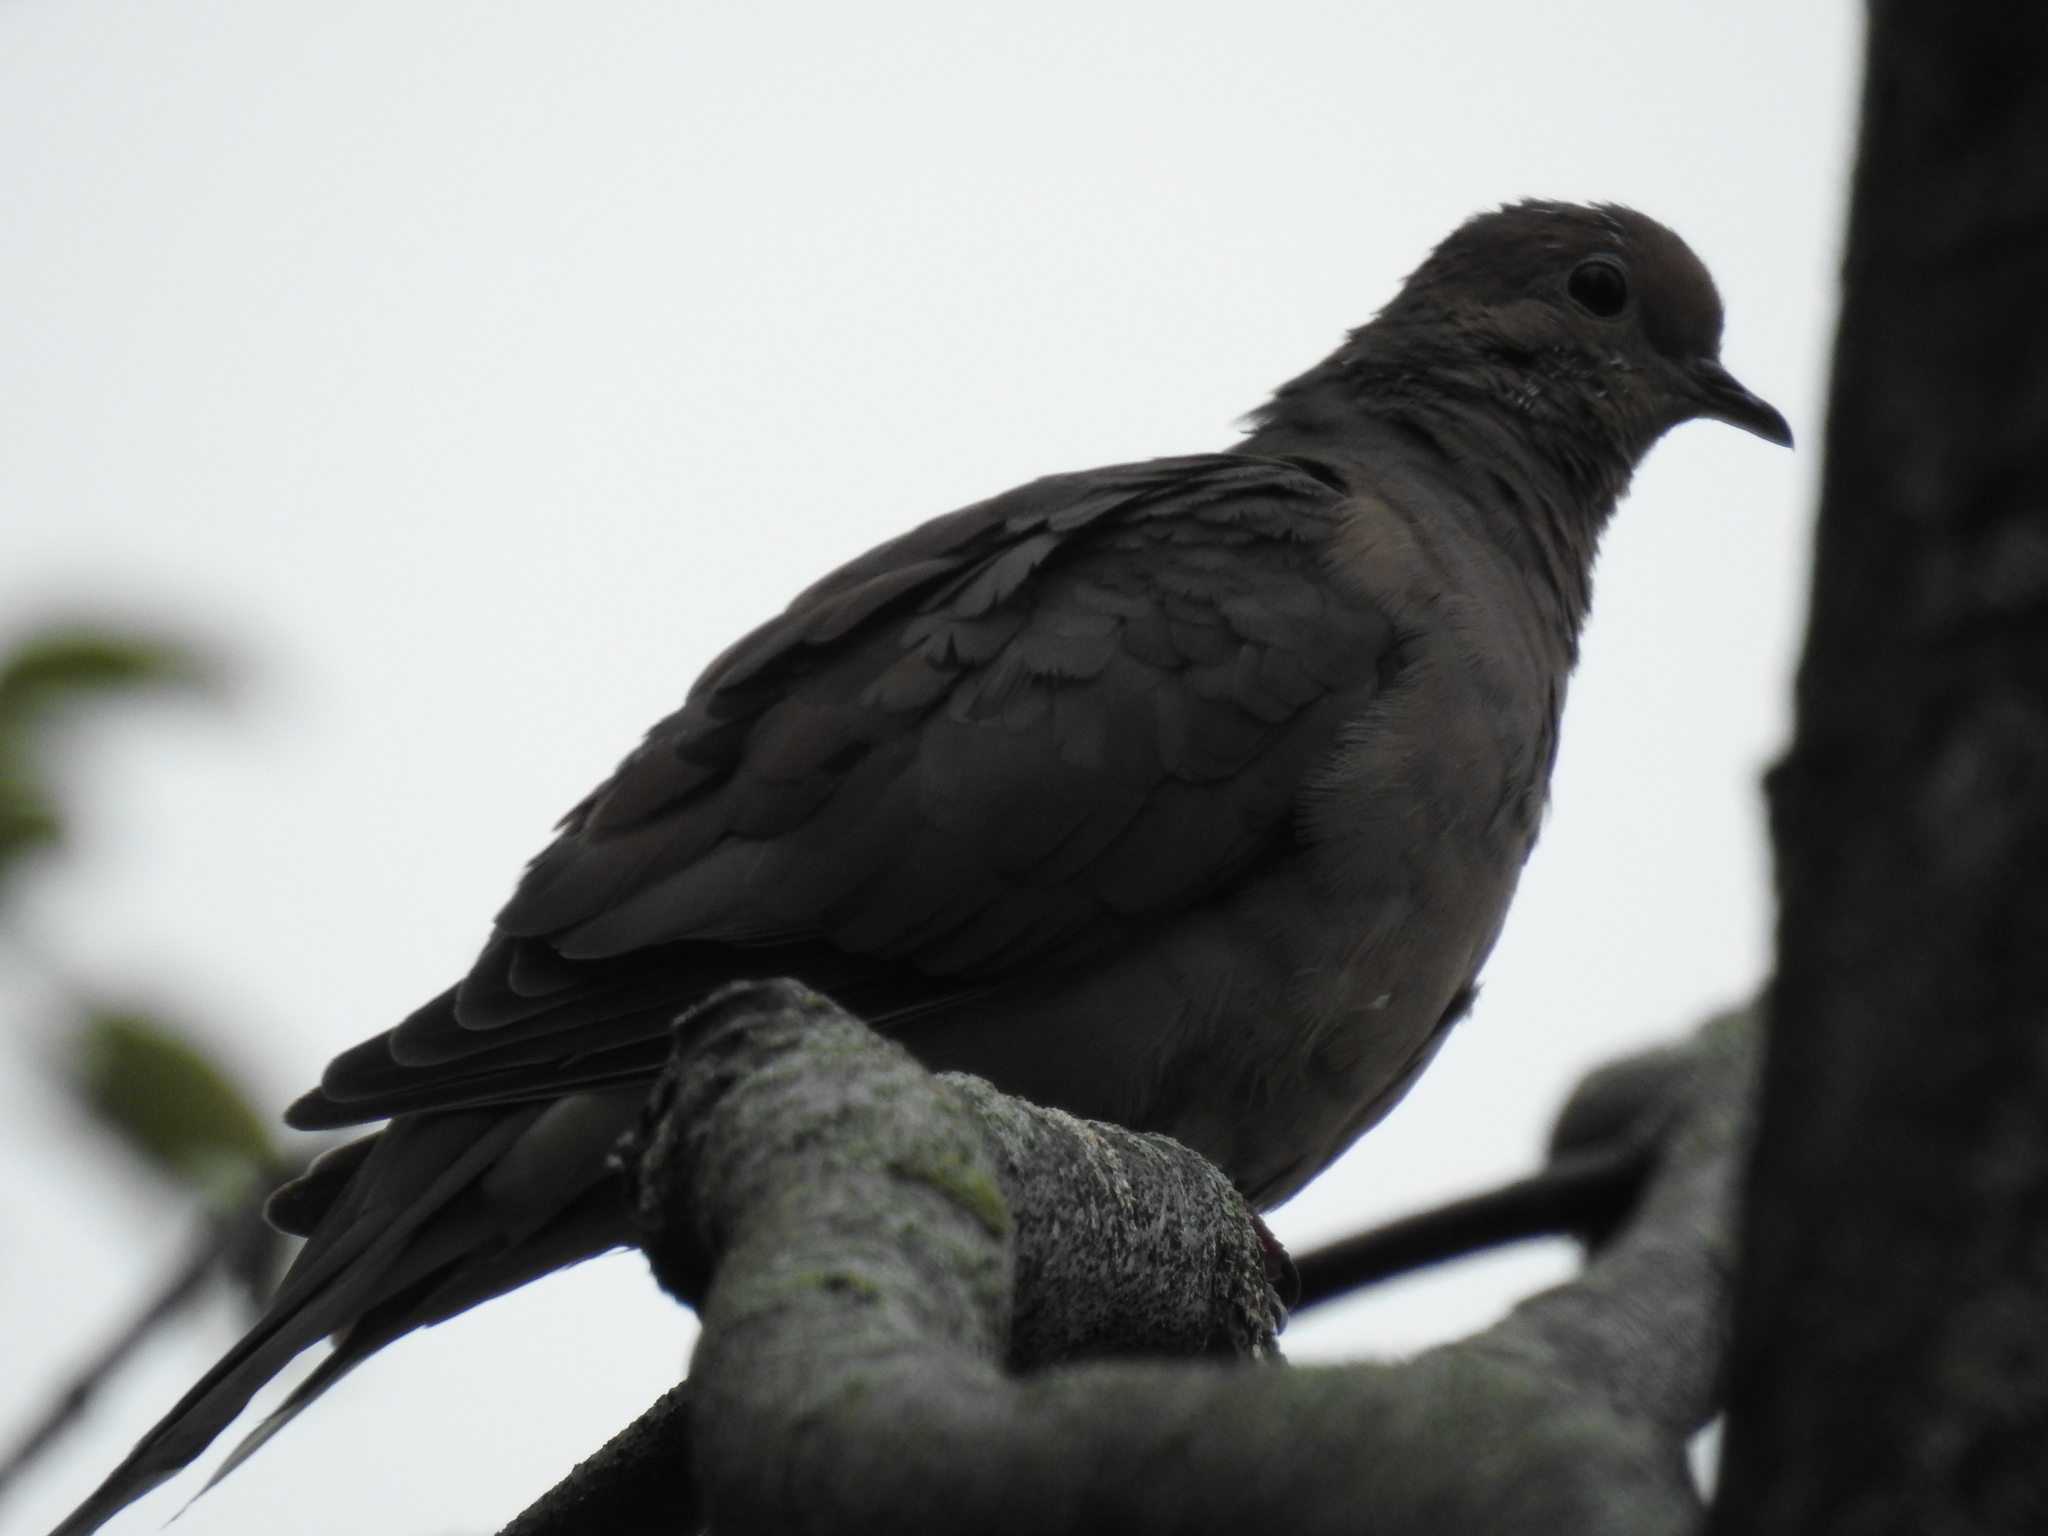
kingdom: Animalia
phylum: Chordata
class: Aves
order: Columbiformes
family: Columbidae
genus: Zenaida
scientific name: Zenaida macroura
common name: Mourning dove
